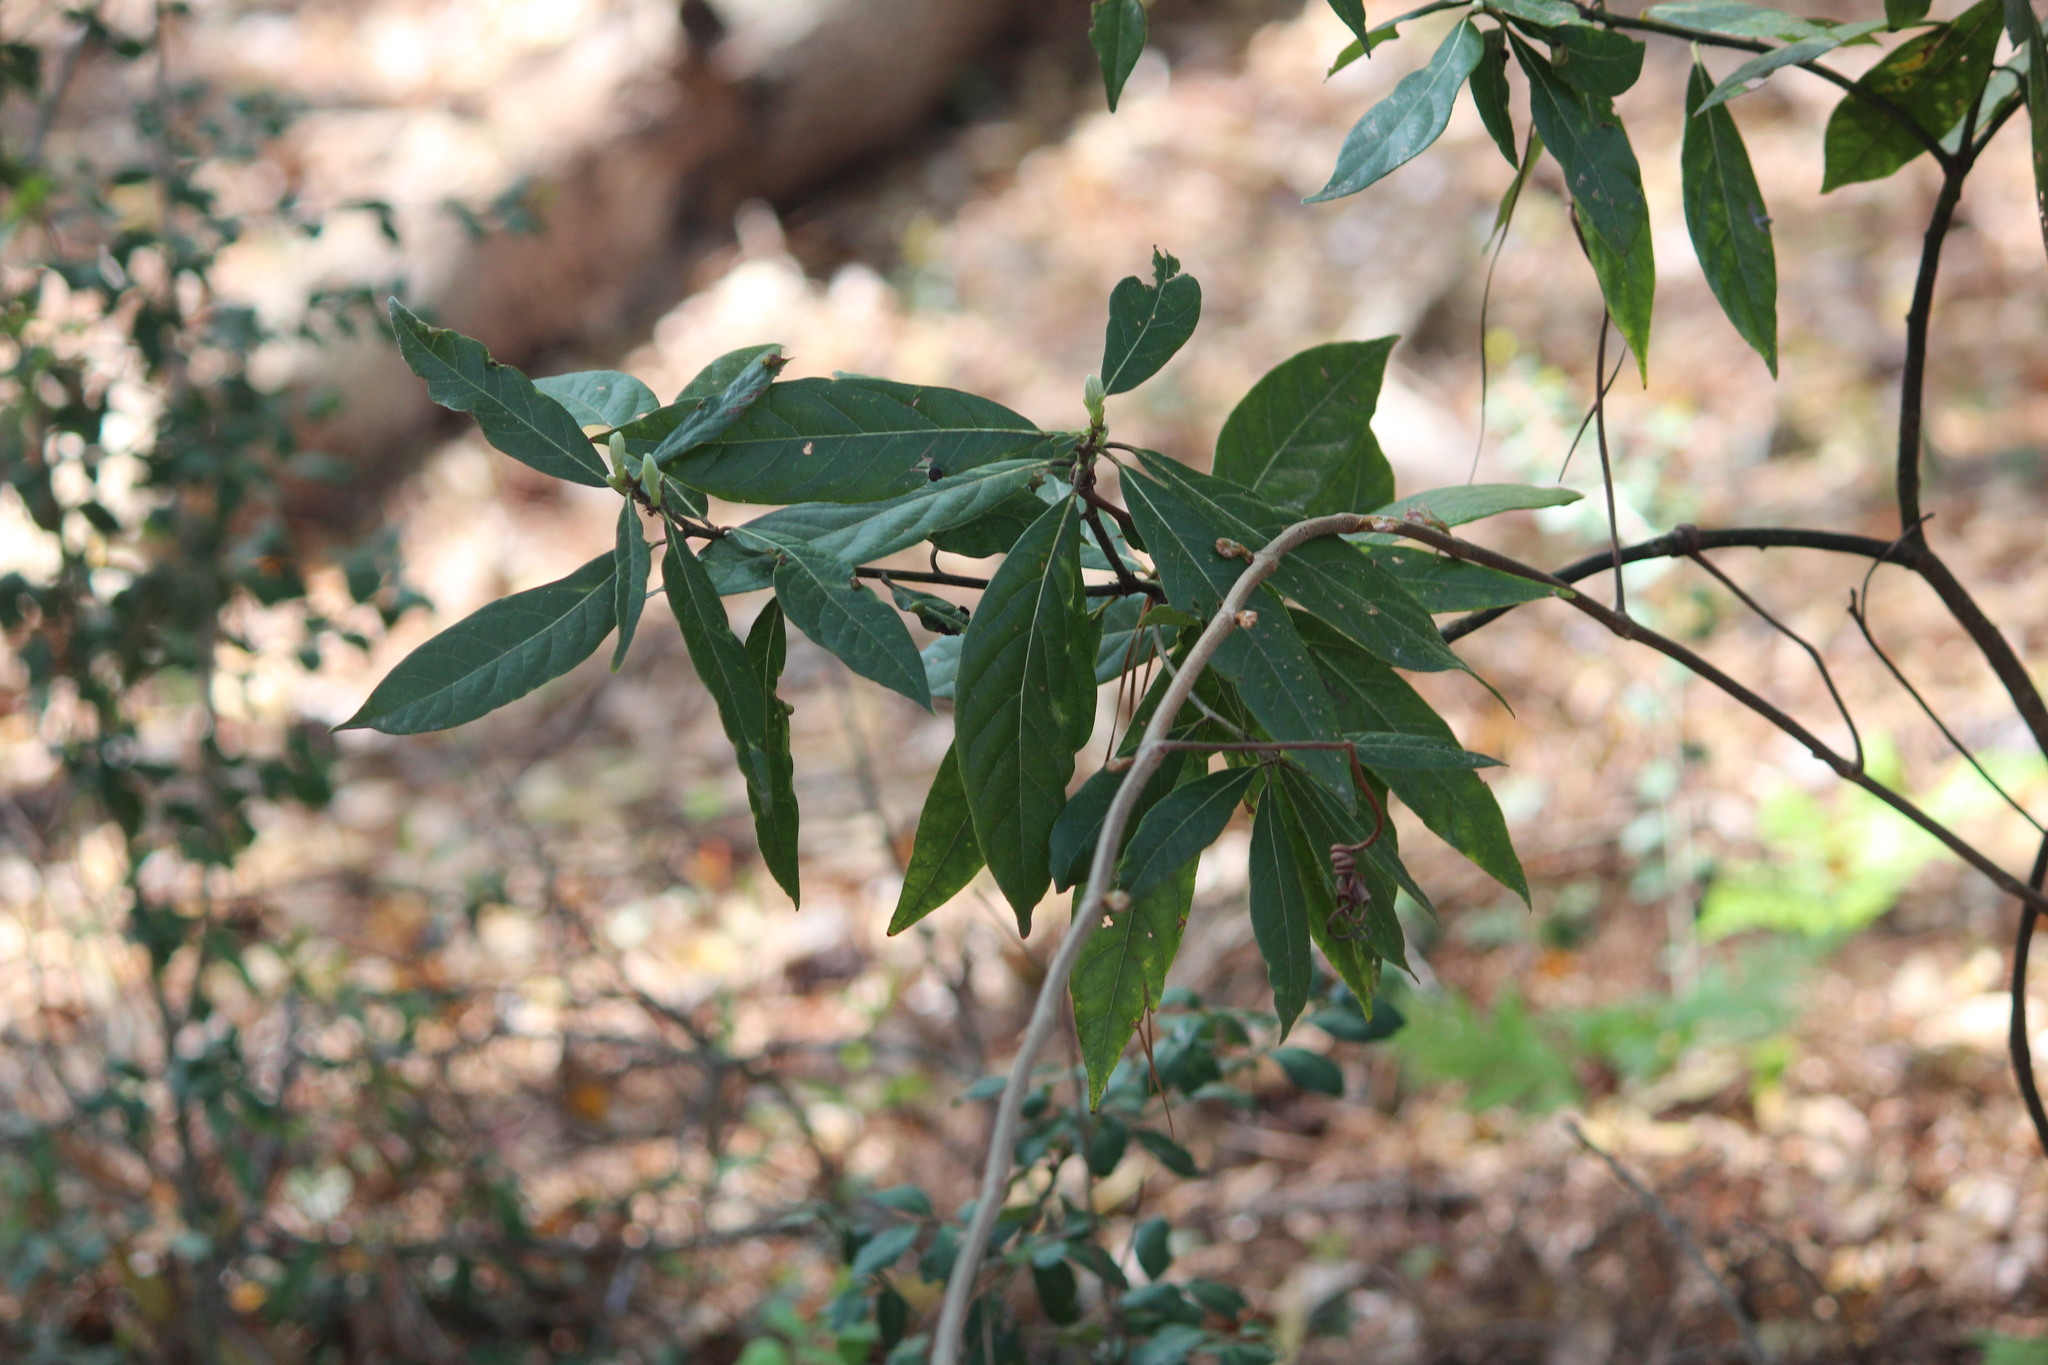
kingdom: Plantae
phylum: Tracheophyta
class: Magnoliopsida
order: Laurales
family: Lauraceae
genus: Persea
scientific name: Persea palustris
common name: Swampbay
